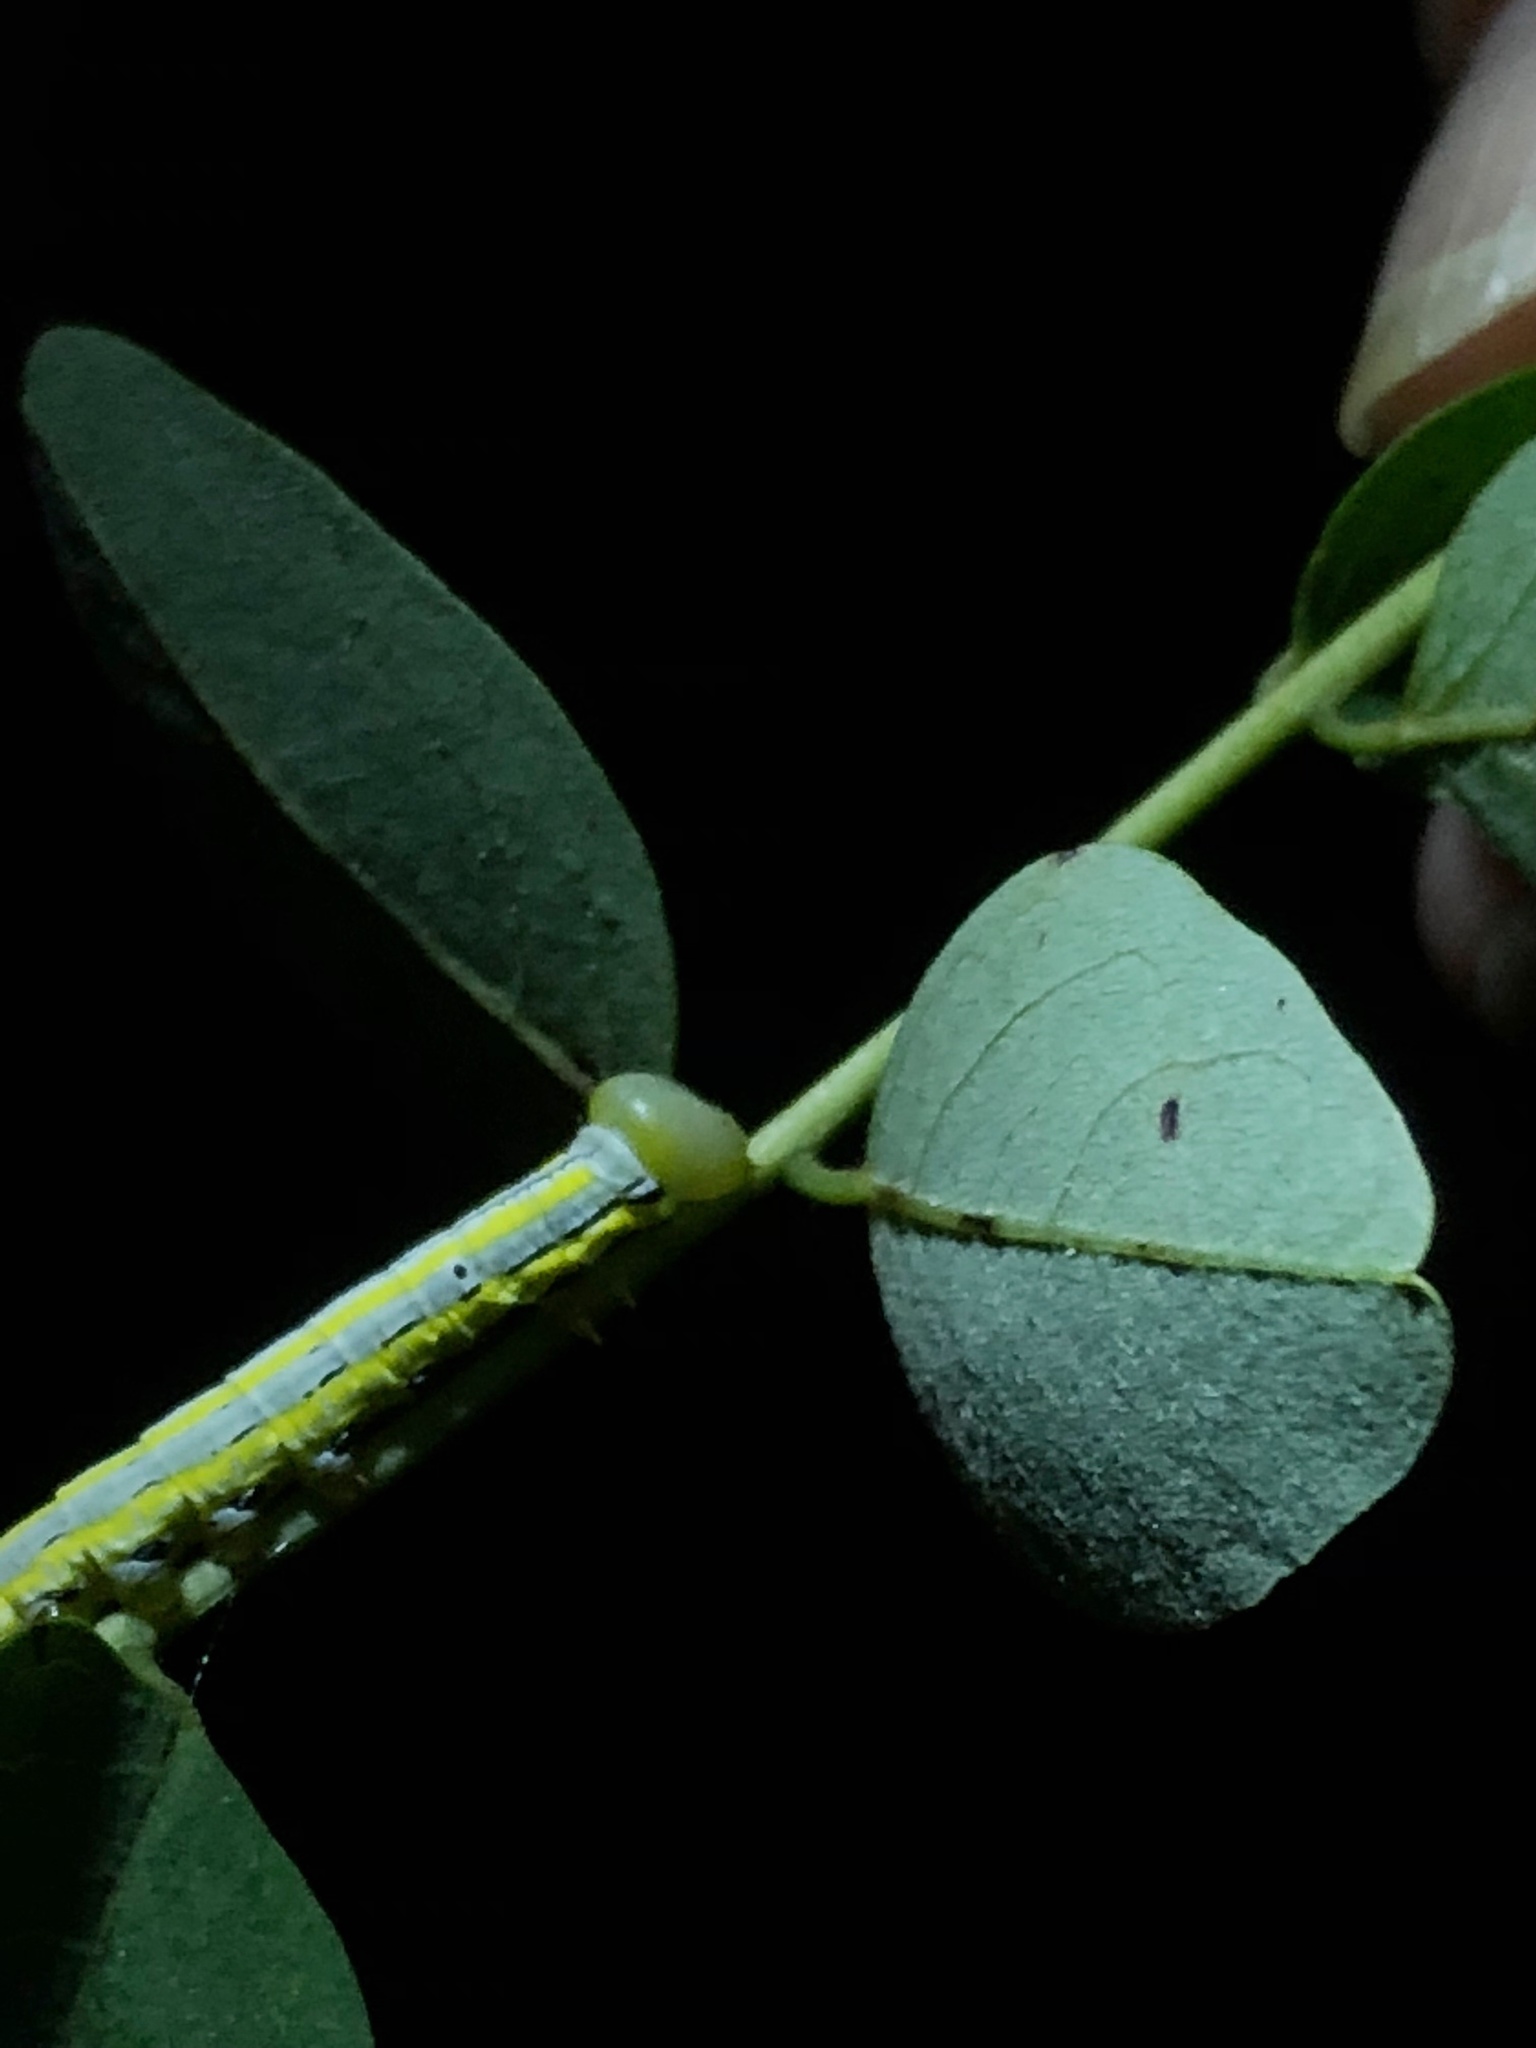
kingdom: Animalia
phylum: Arthropoda
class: Insecta
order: Lepidoptera
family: Notodontidae
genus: Dasylophia
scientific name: Dasylophia anguina
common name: Black-spotted prominent
